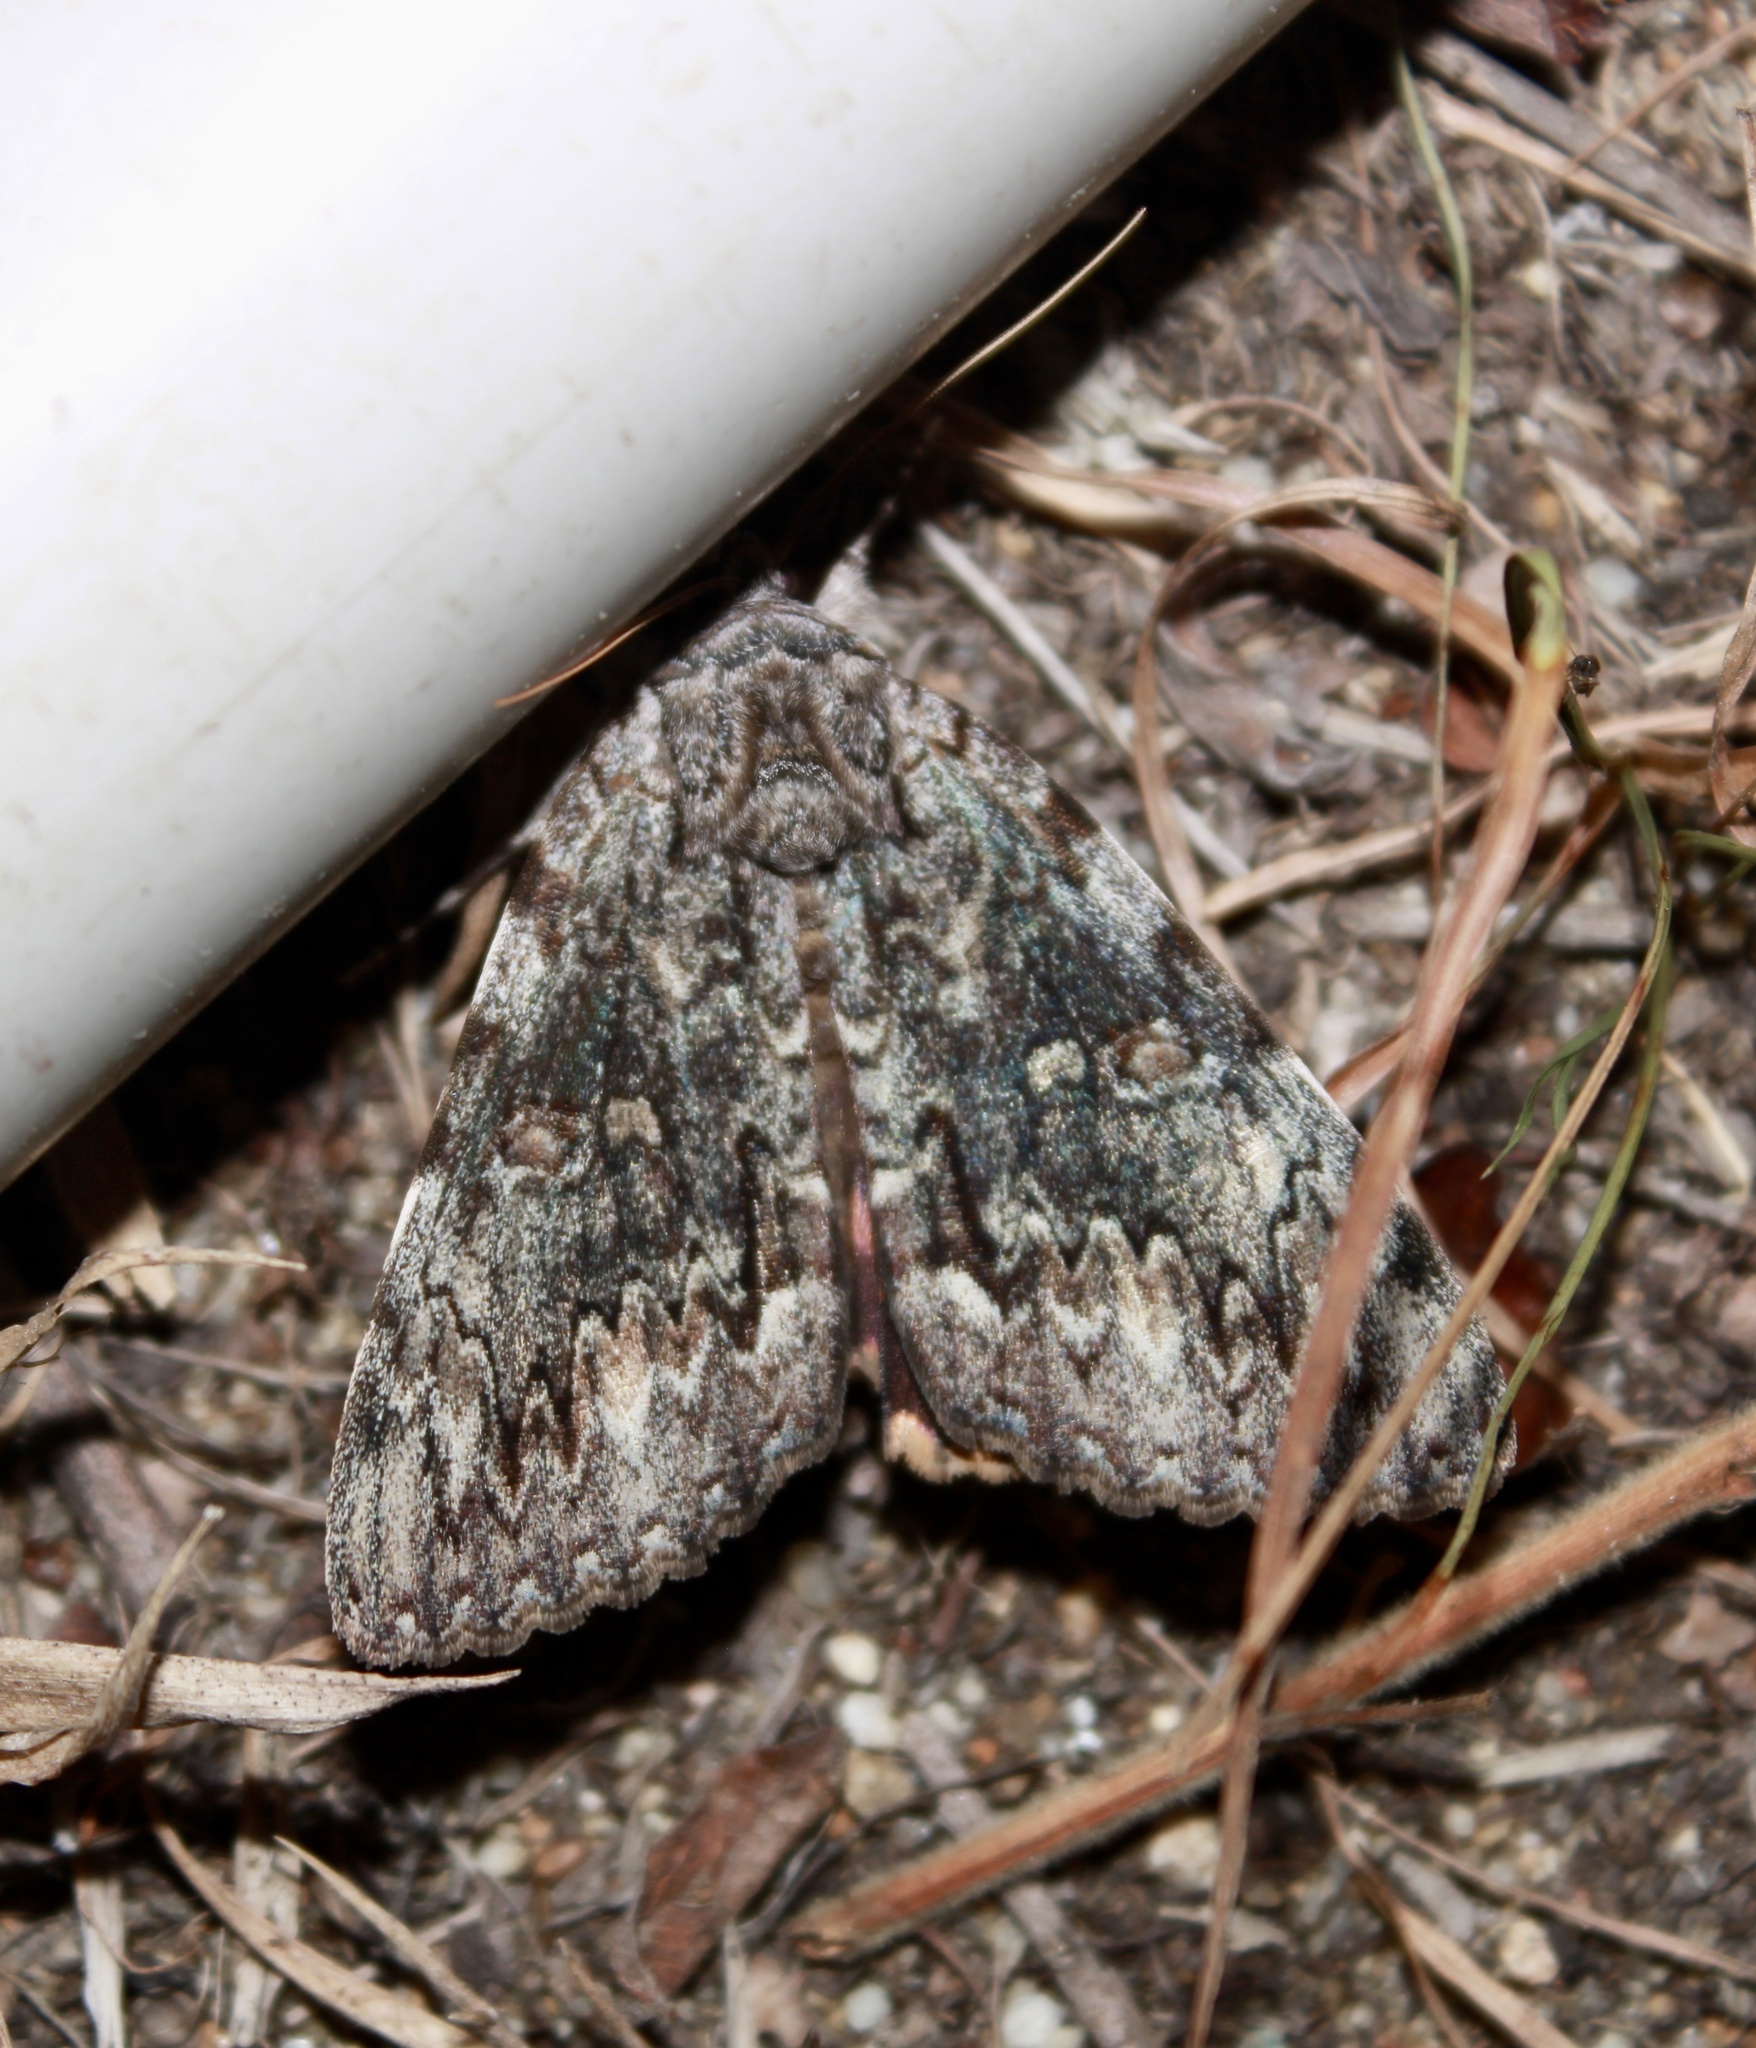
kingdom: Animalia
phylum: Arthropoda
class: Insecta
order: Lepidoptera
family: Erebidae
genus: Catocala
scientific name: Catocala palaeogama
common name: Oldwife underwing
